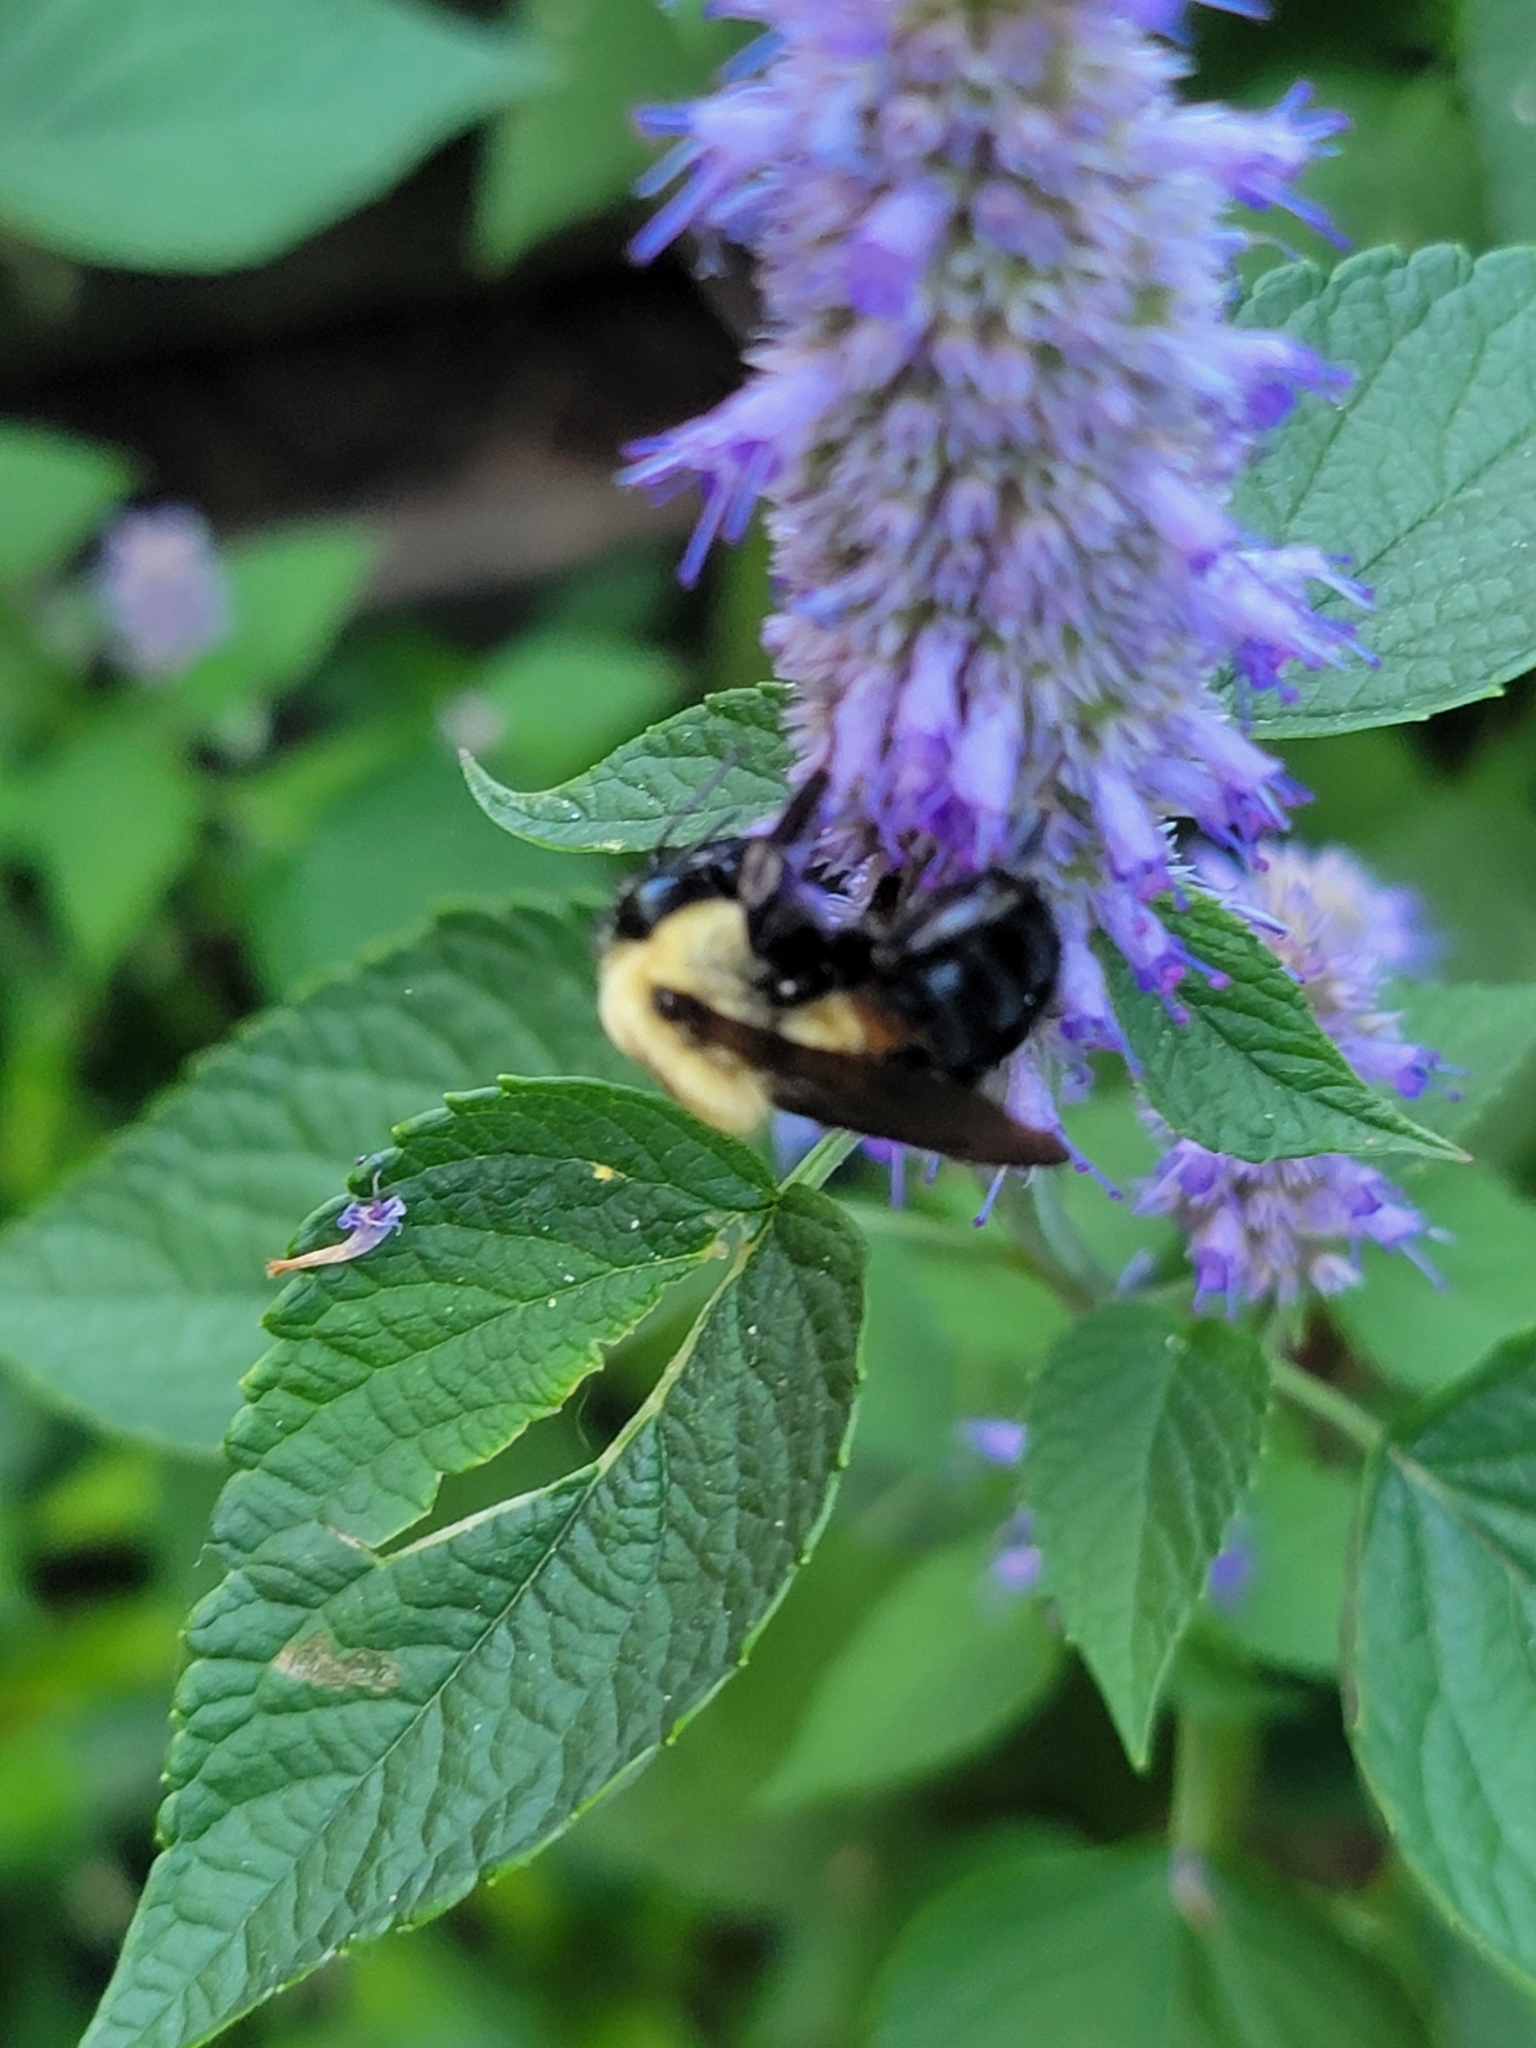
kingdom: Animalia
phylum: Arthropoda
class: Insecta
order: Hymenoptera
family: Apidae
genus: Bombus
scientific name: Bombus griseocollis
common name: Brown-belted bumble bee
